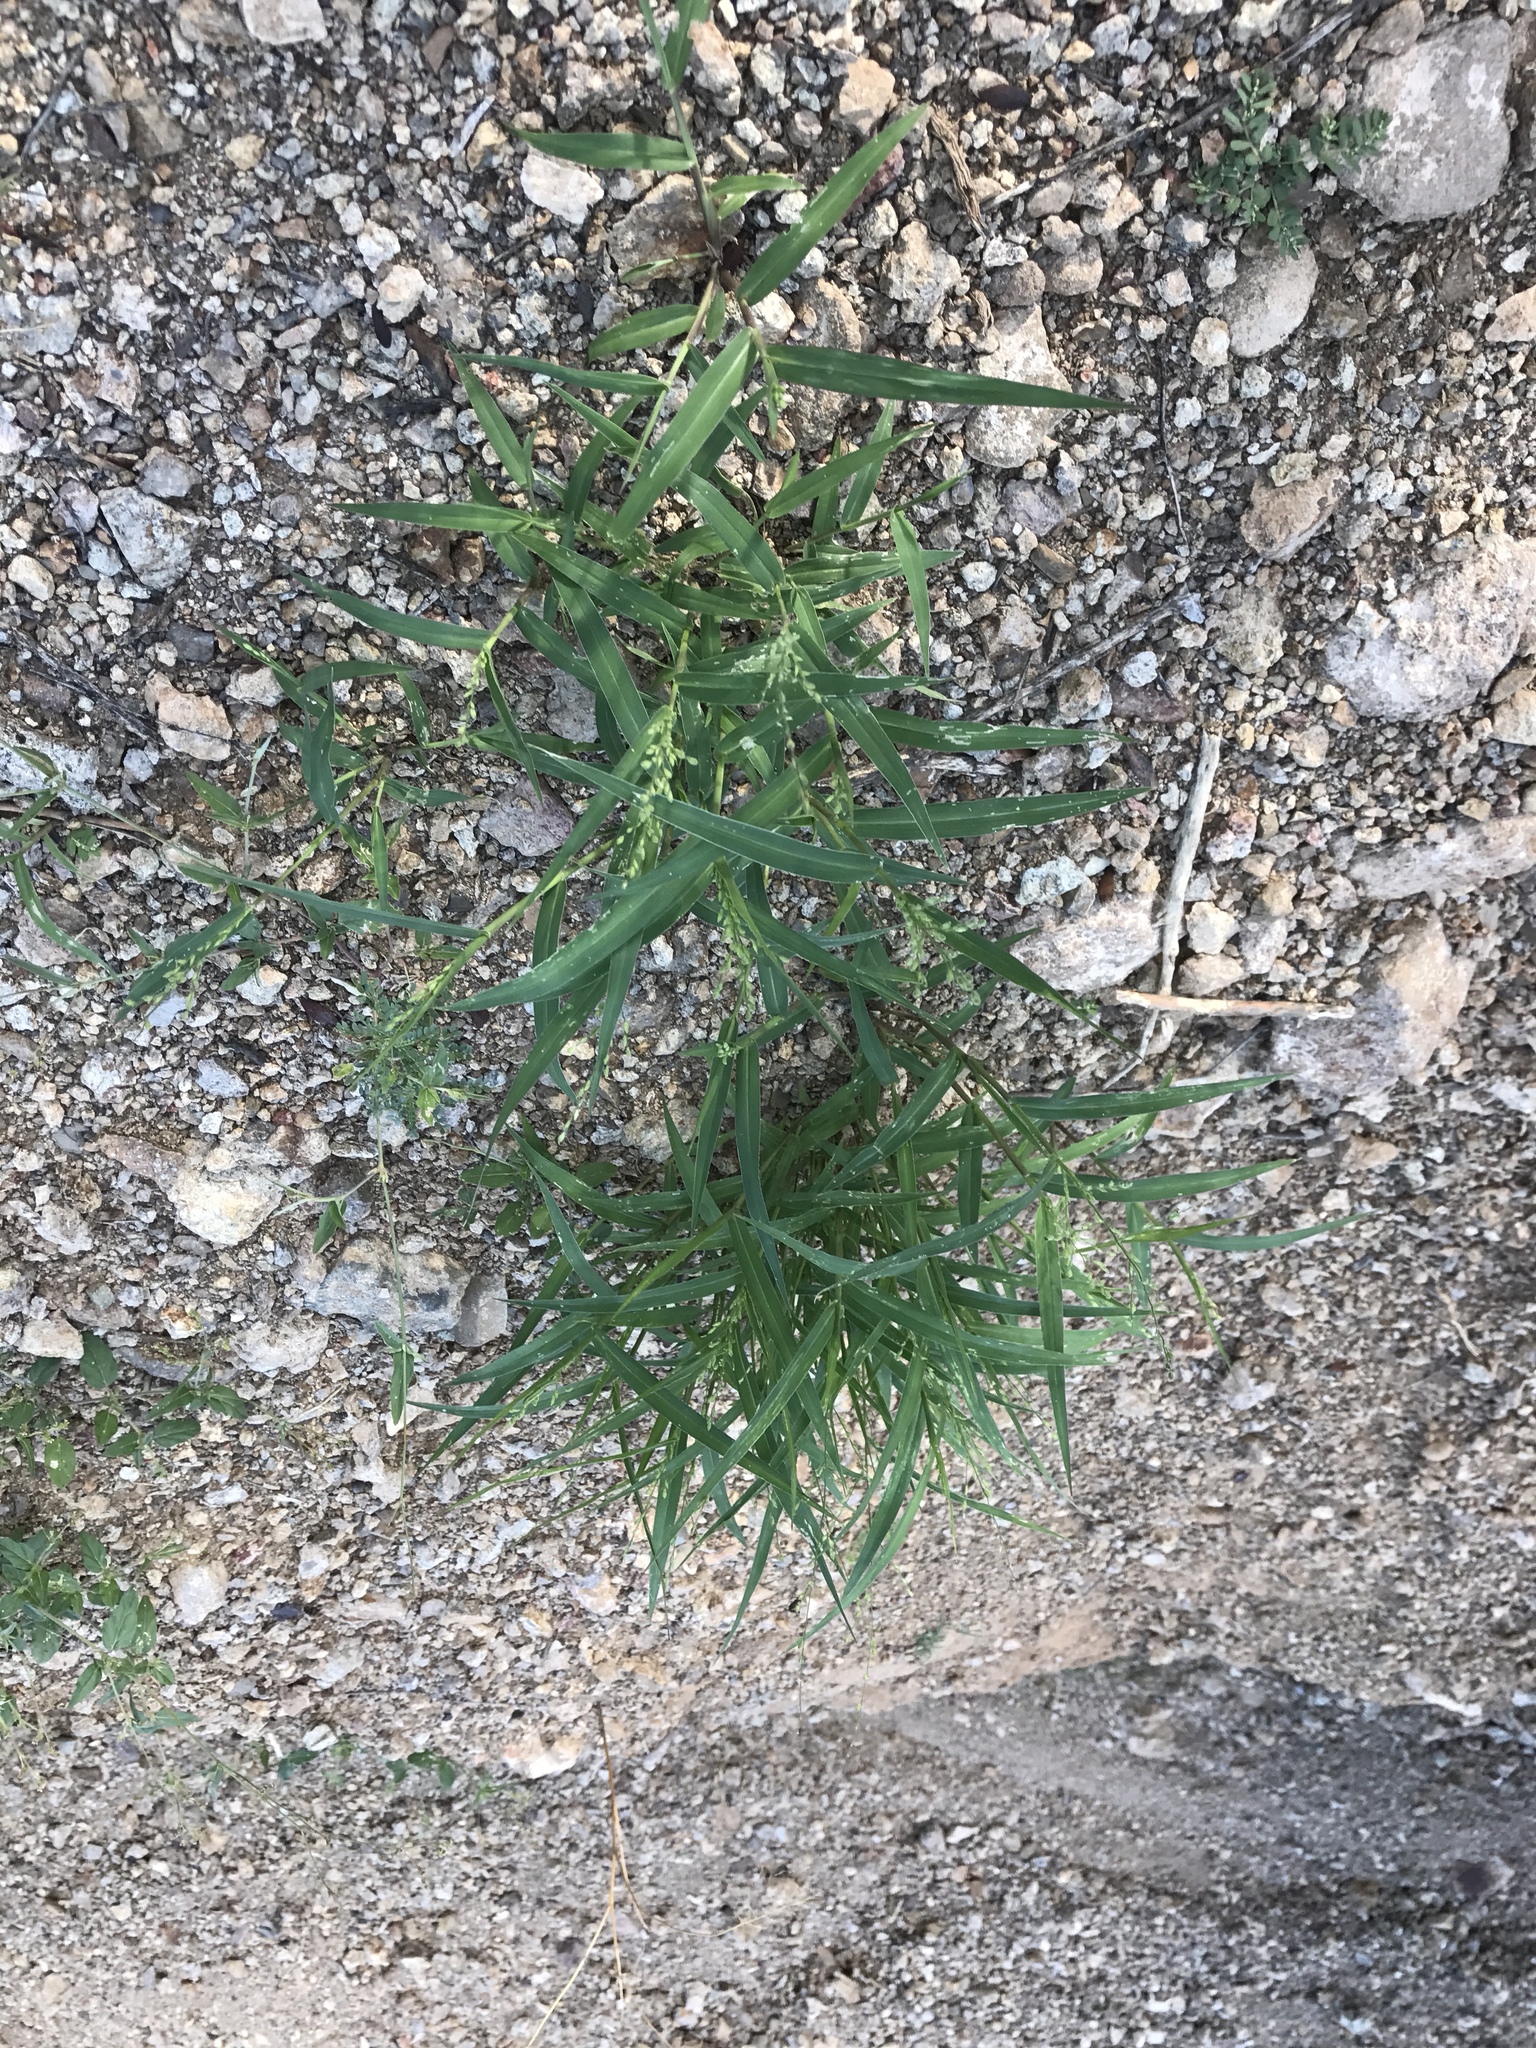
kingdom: Plantae
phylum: Tracheophyta
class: Liliopsida
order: Poales
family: Poaceae
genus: Panicum
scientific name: Panicum hirticaule
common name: Rough-stalk witchgrass
